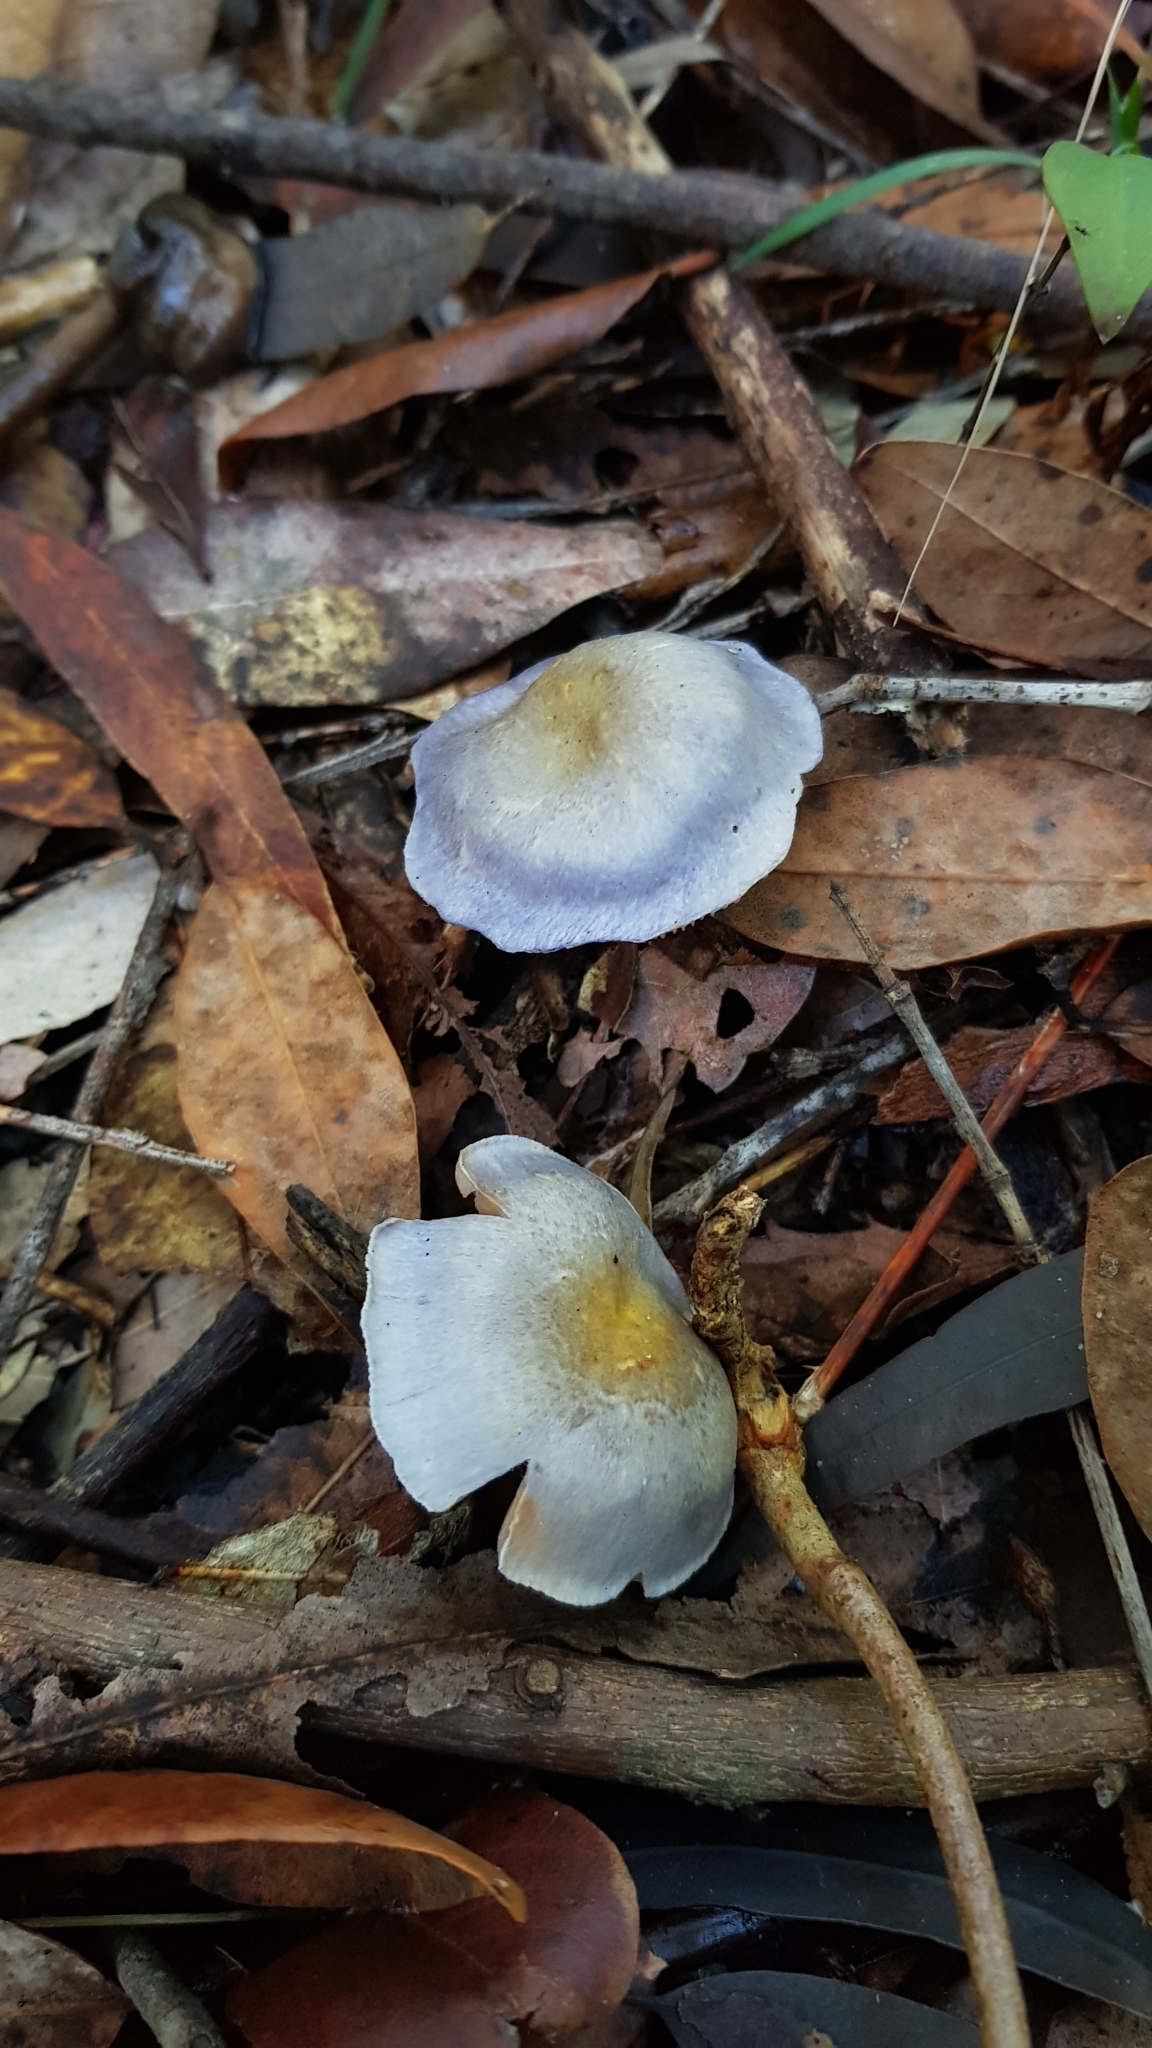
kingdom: Fungi
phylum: Basidiomycota
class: Agaricomycetes
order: Agaricales
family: Cortinariaceae
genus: Cortinarius
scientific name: Cortinarius rotundisporus
